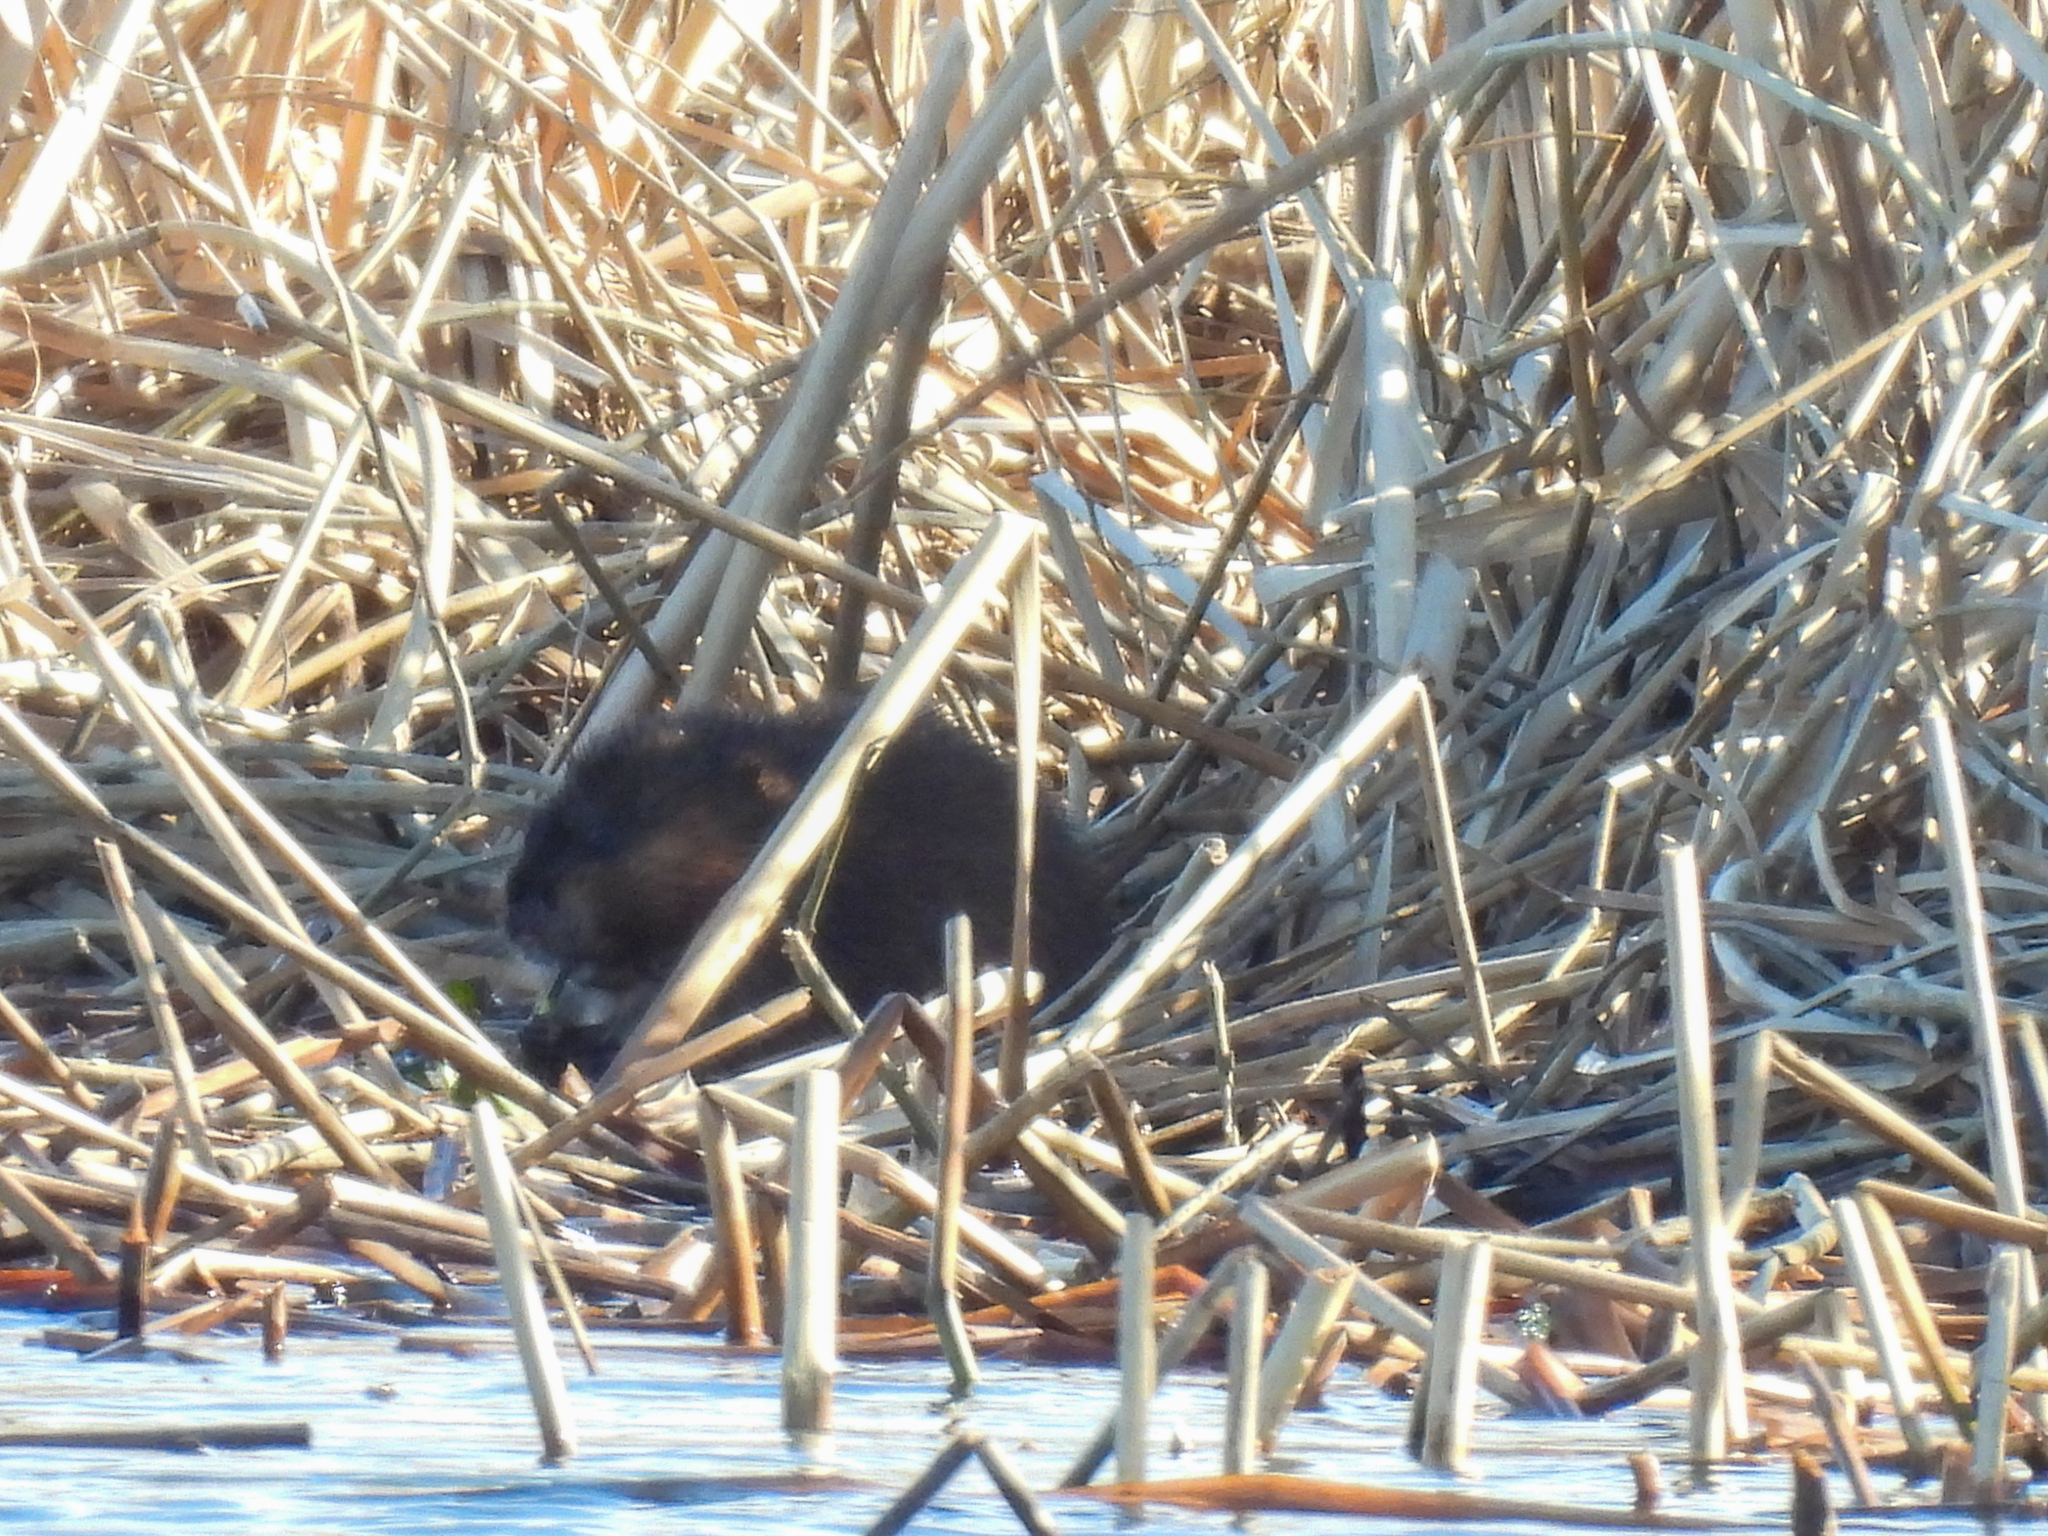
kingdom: Animalia
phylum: Chordata
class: Mammalia
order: Rodentia
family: Cricetidae
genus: Ondatra
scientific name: Ondatra zibethicus
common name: Muskrat
